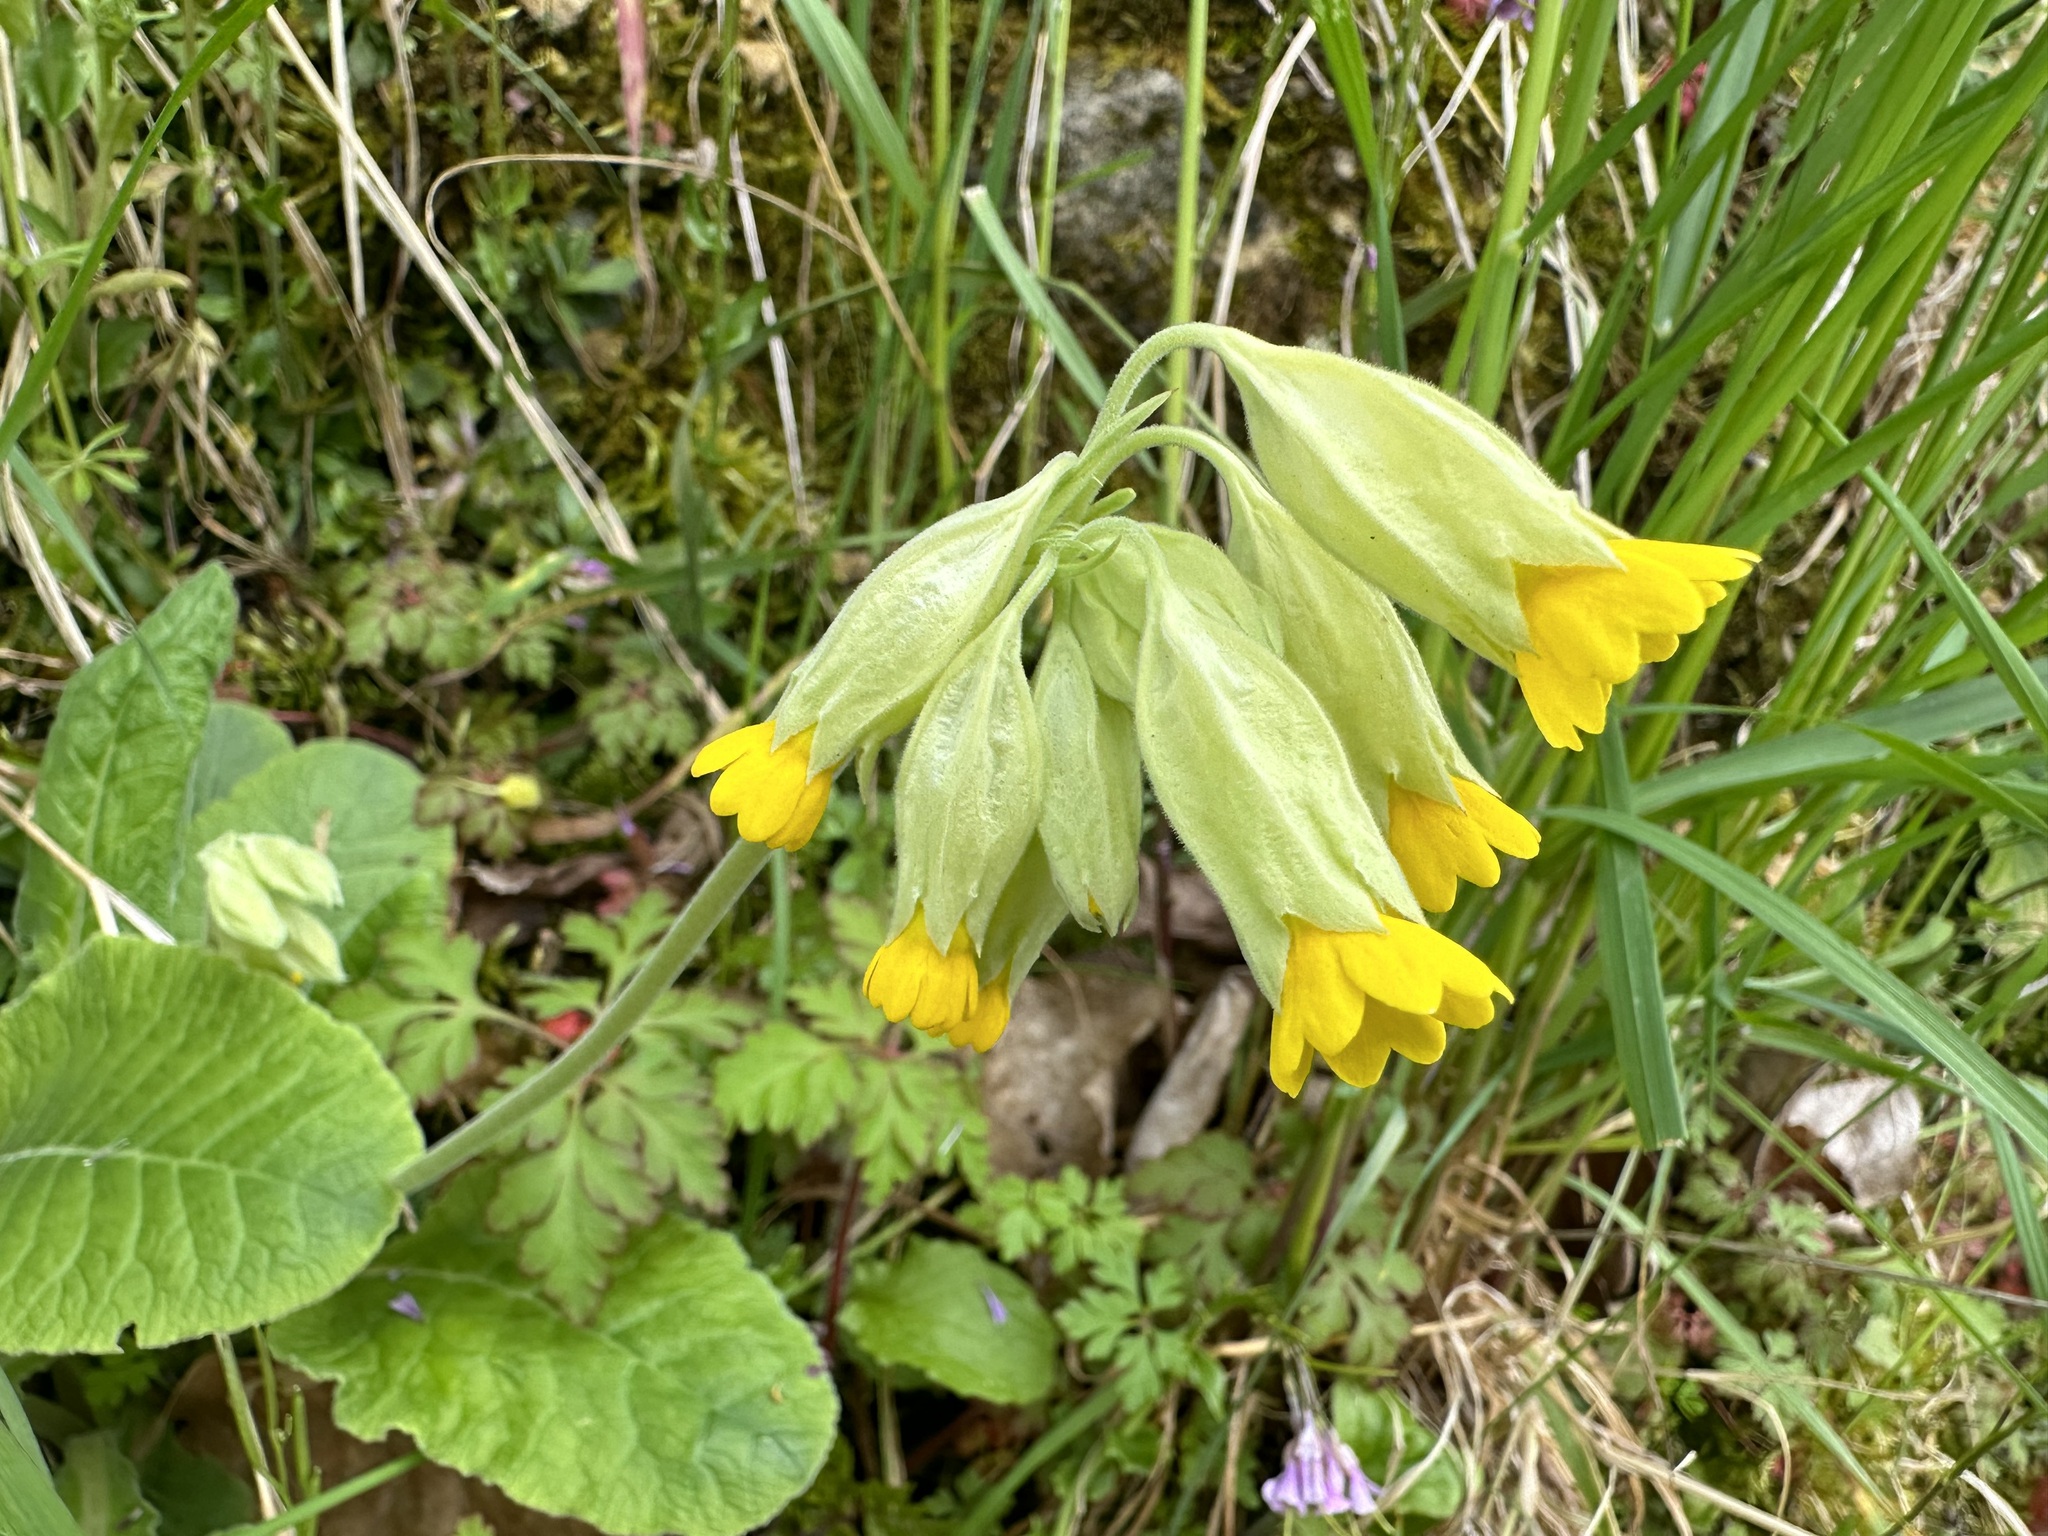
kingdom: Plantae
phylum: Tracheophyta
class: Magnoliopsida
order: Ericales
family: Primulaceae
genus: Primula
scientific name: Primula veris
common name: Cowslip
